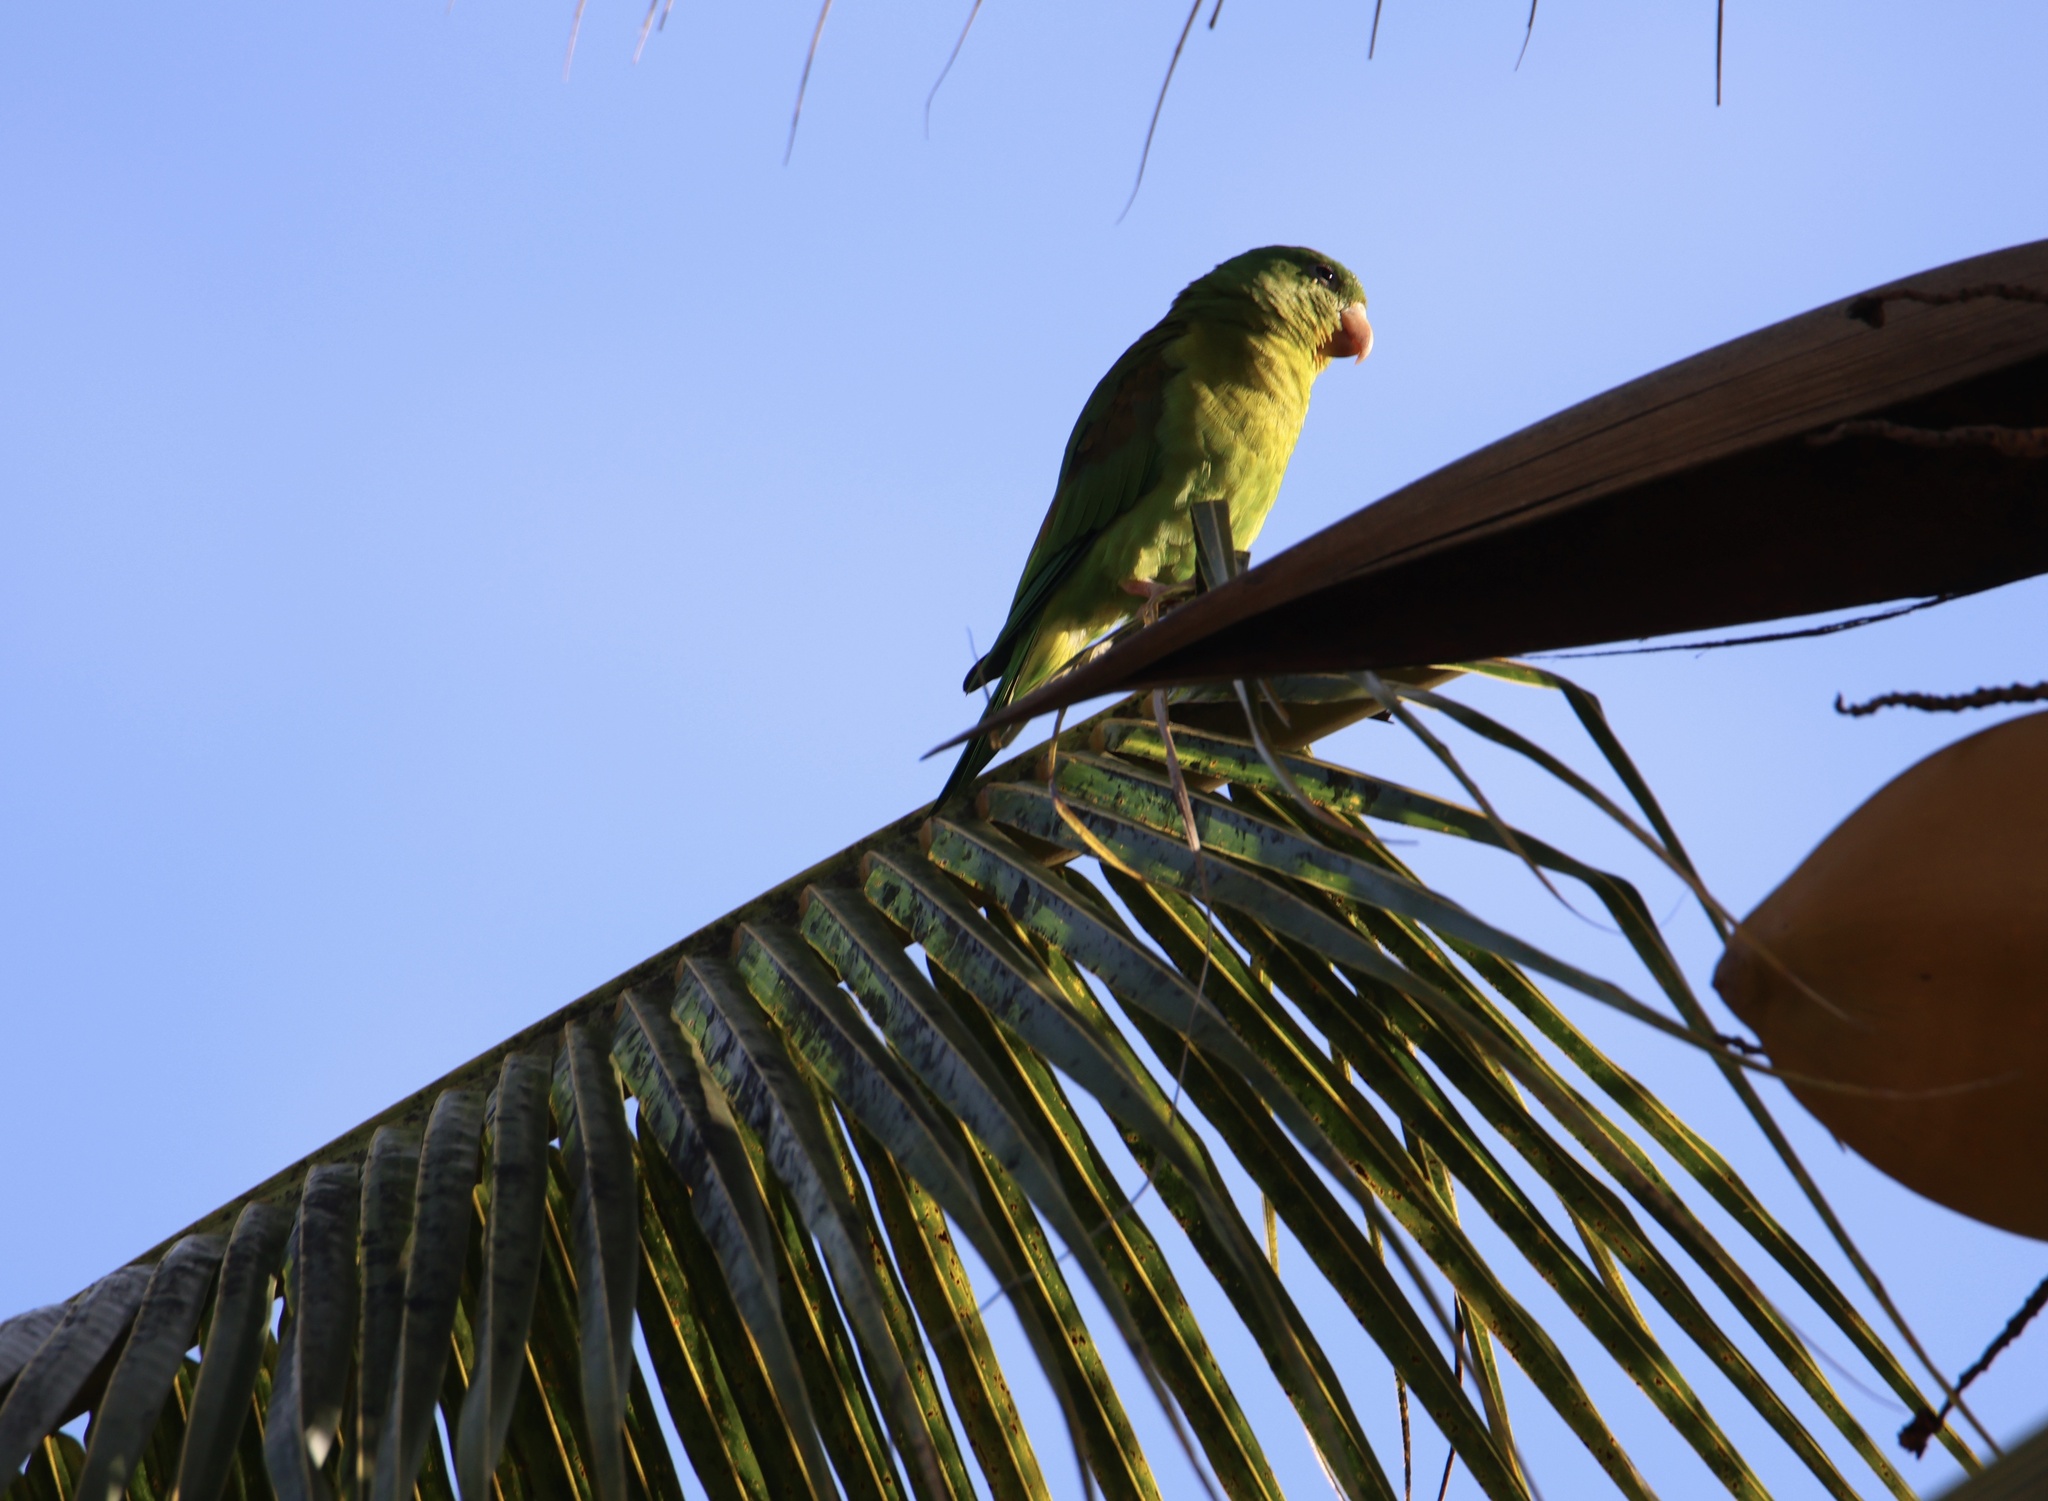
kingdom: Animalia
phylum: Chordata
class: Aves
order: Psittaciformes
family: Psittacidae
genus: Brotogeris
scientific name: Brotogeris jugularis
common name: Orange-chinned parakeet
